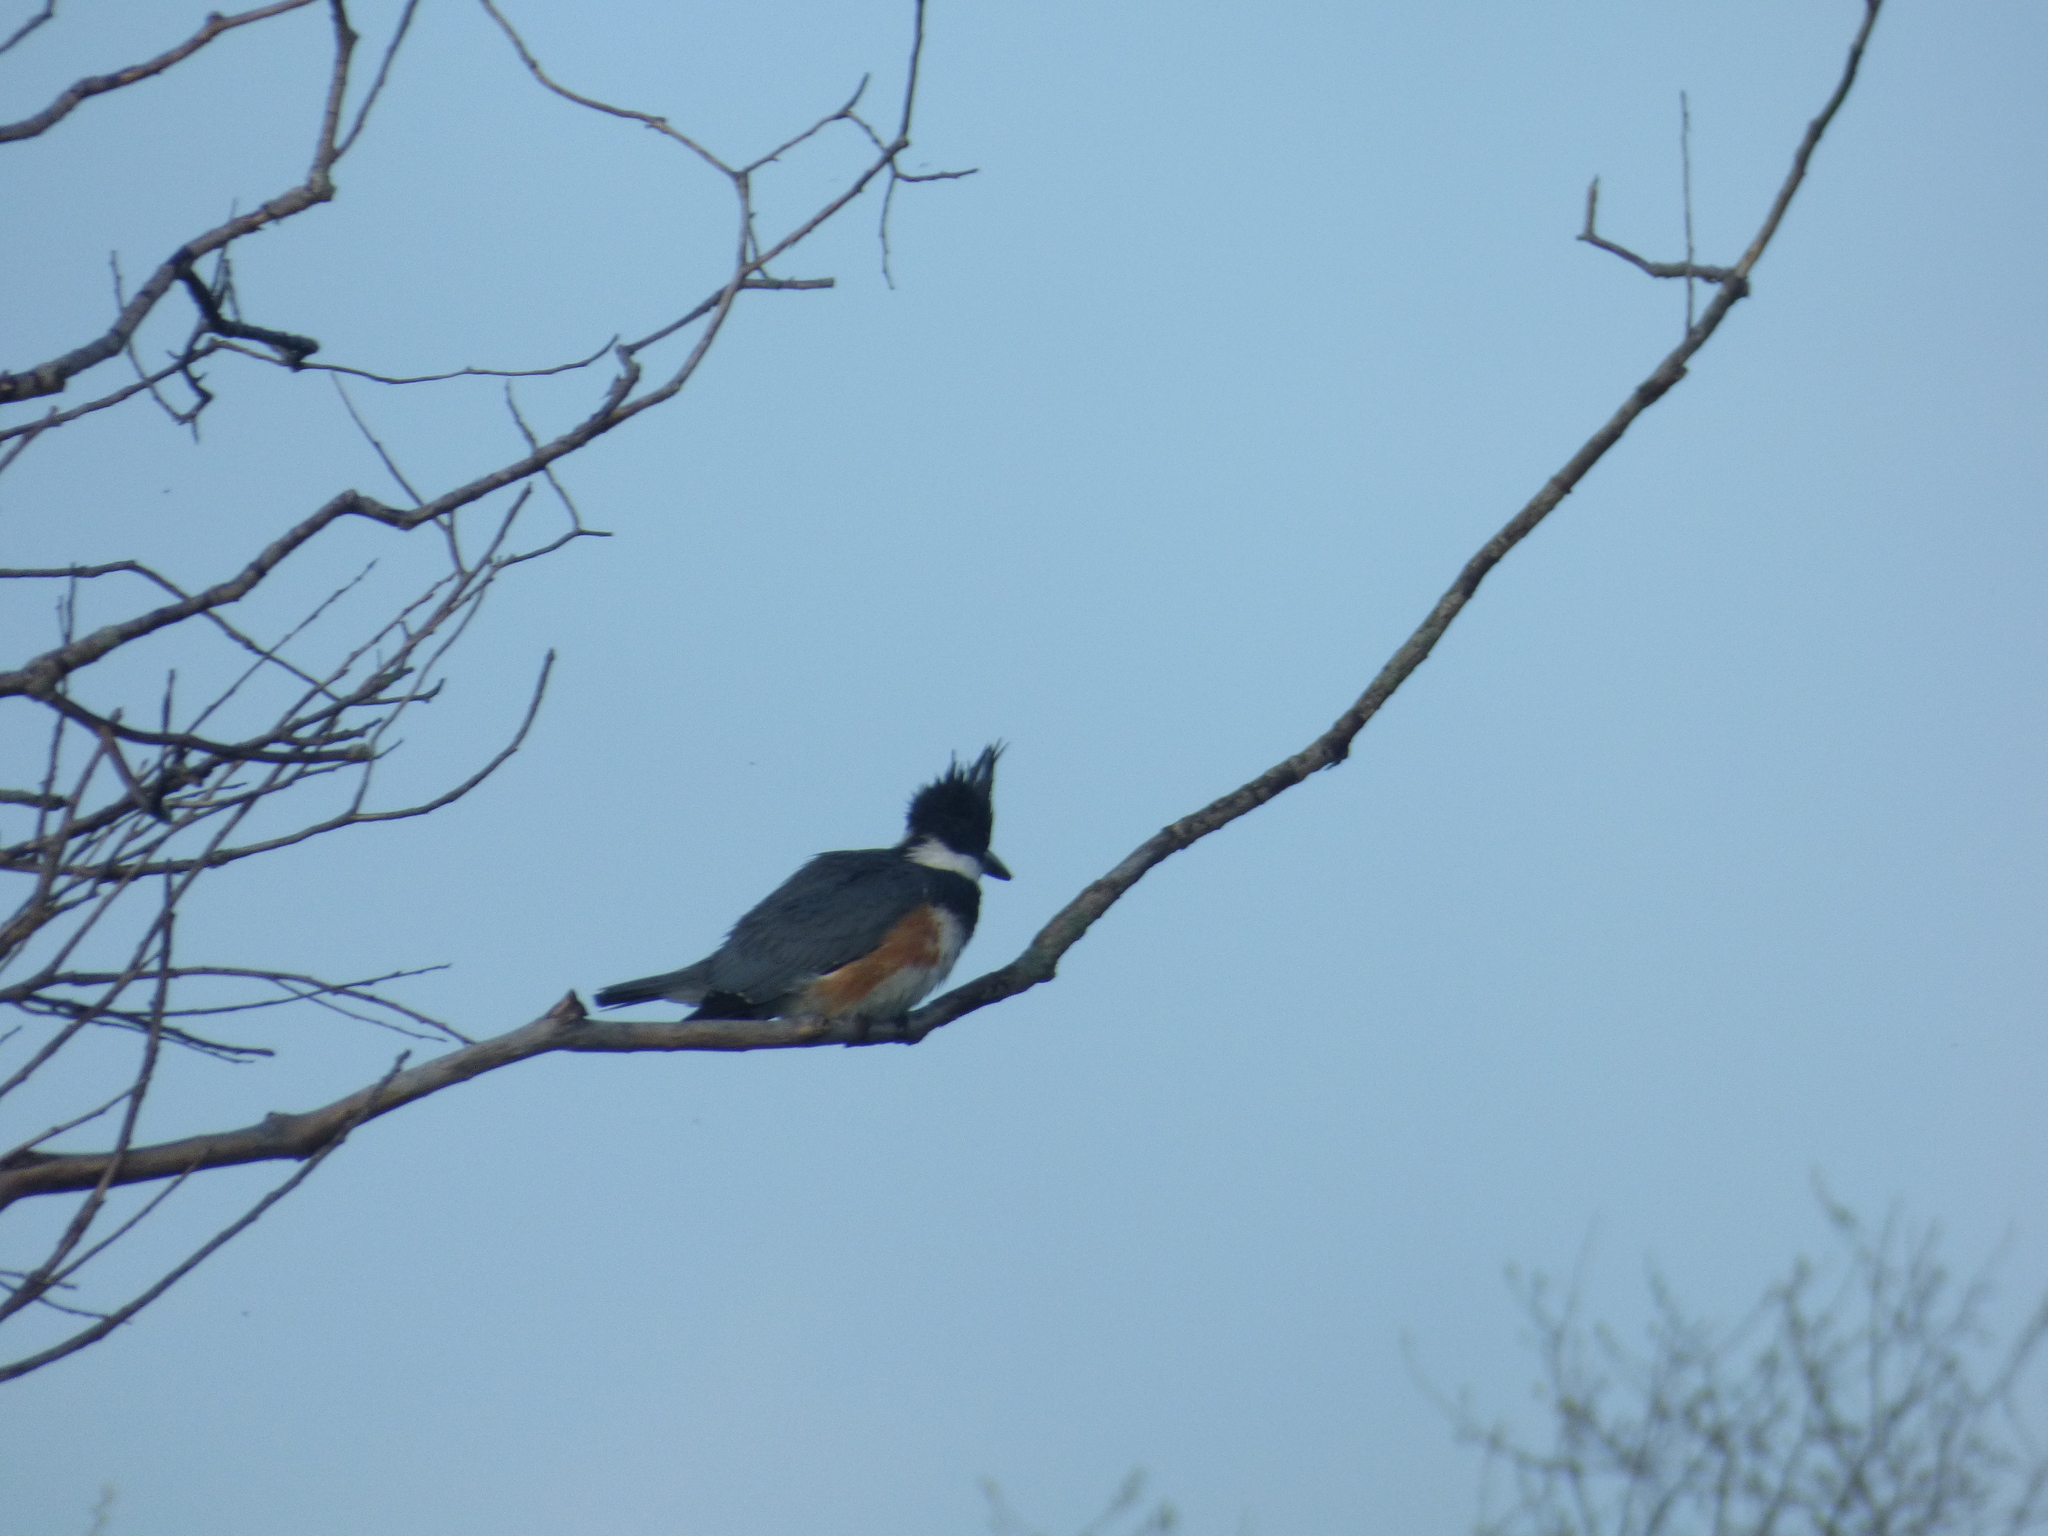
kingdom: Animalia
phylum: Chordata
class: Aves
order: Coraciiformes
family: Alcedinidae
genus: Megaceryle
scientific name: Megaceryle alcyon
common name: Belted kingfisher
